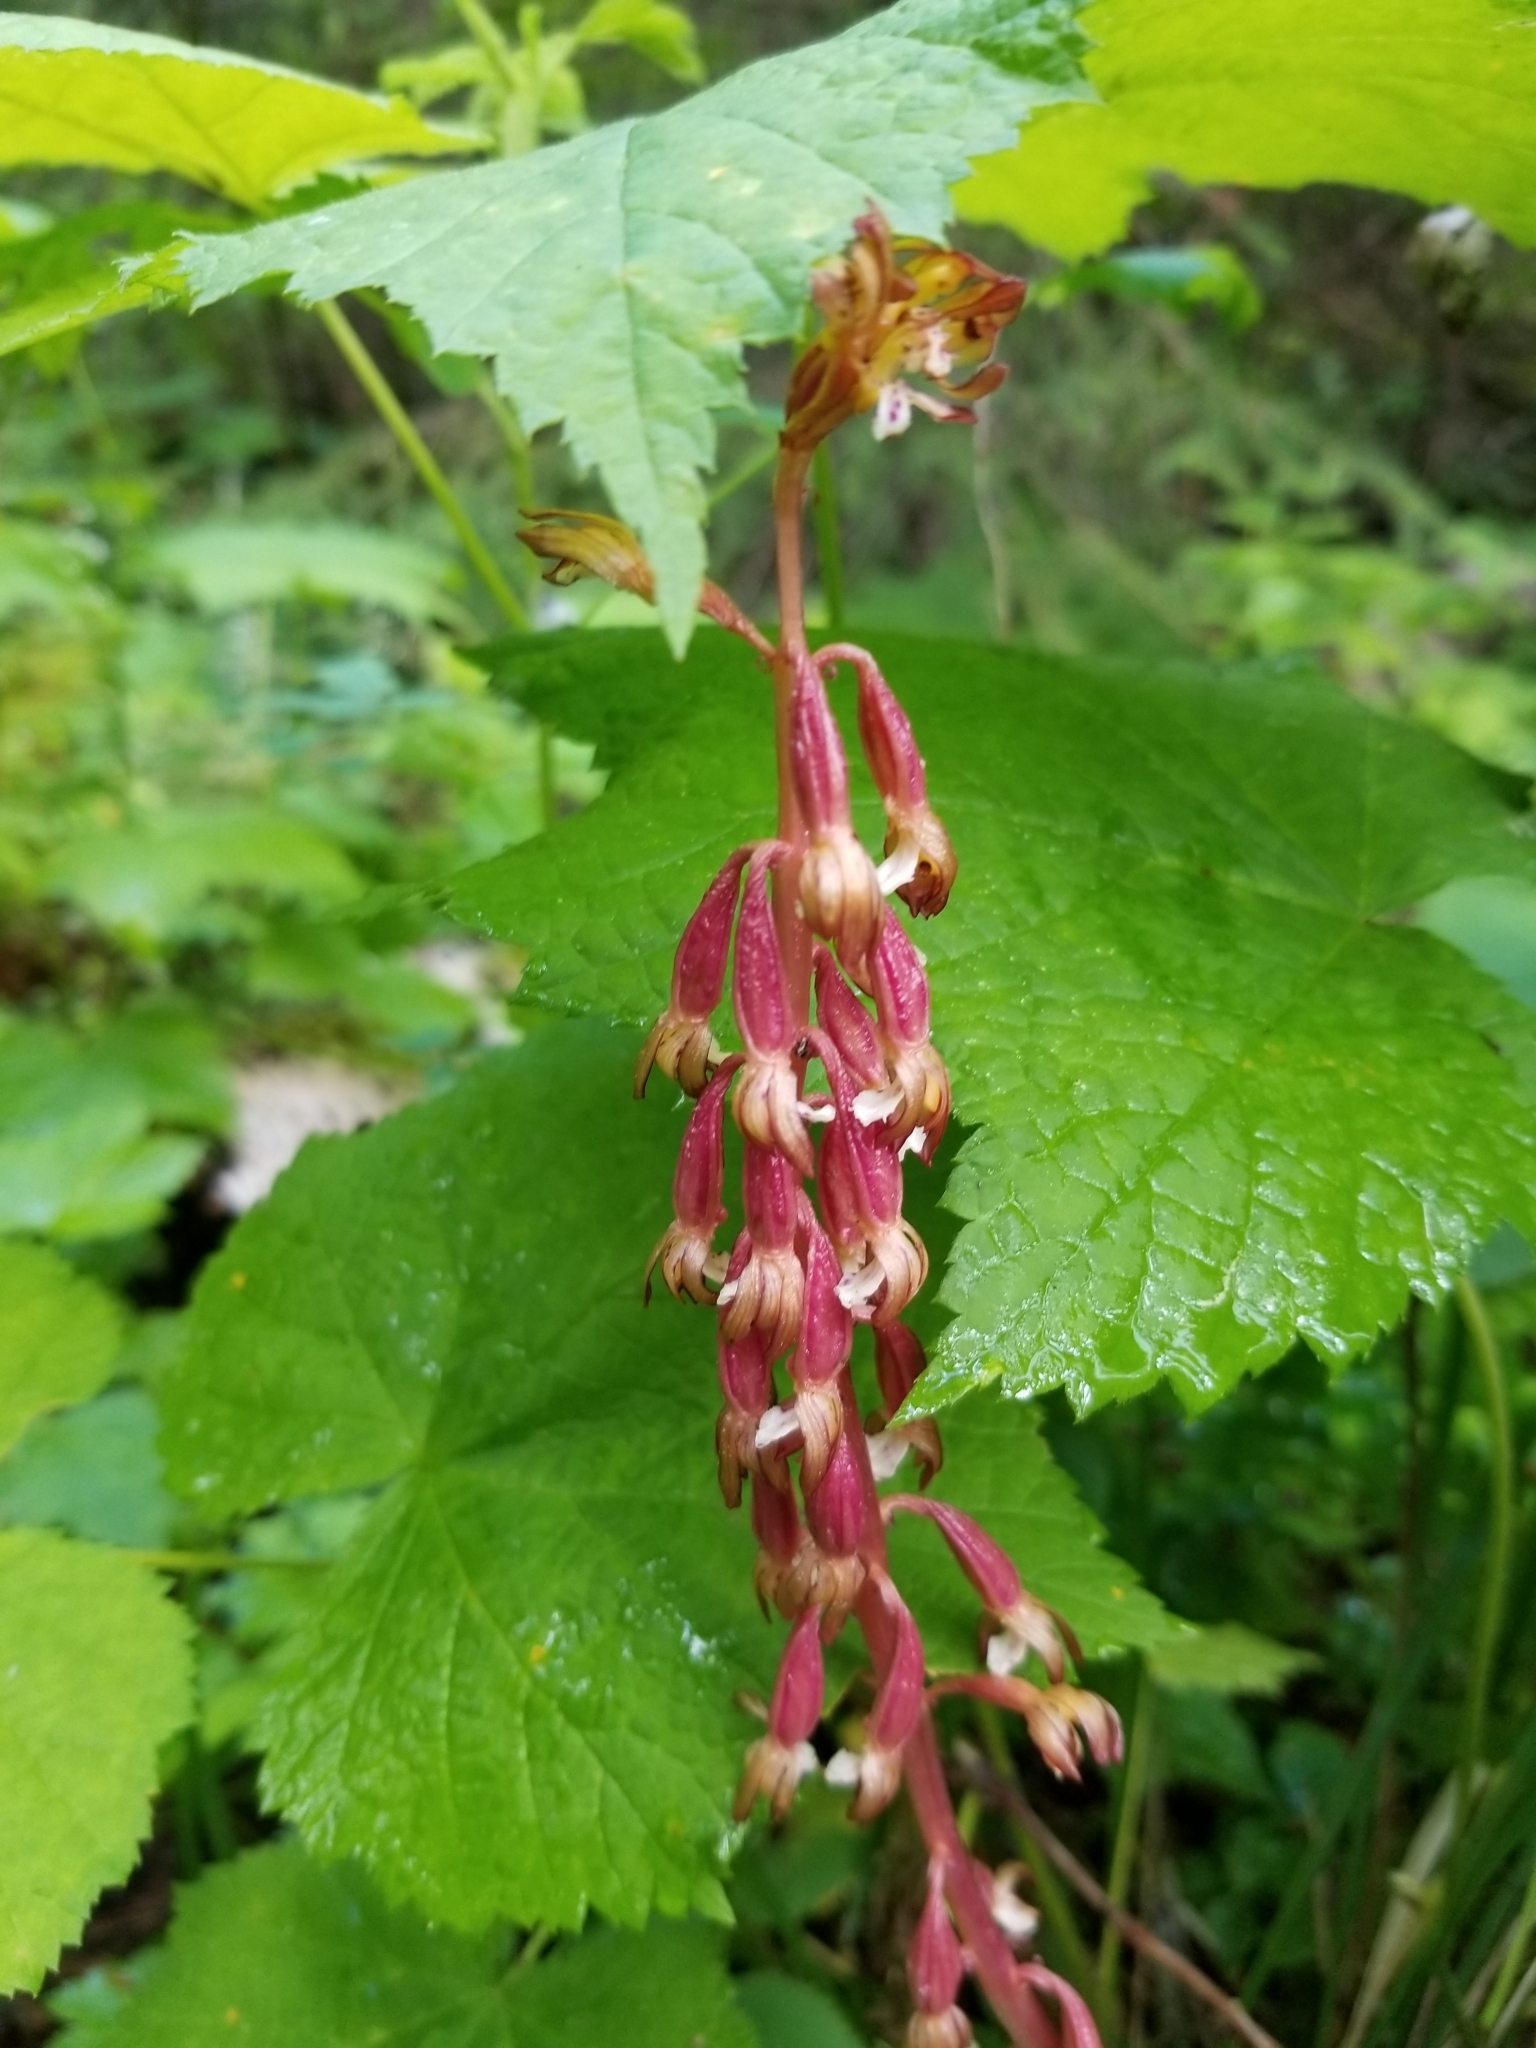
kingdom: Plantae
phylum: Tracheophyta
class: Liliopsida
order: Asparagales
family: Orchidaceae
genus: Corallorhiza
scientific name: Corallorhiza maculata
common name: Spotted coralroot
